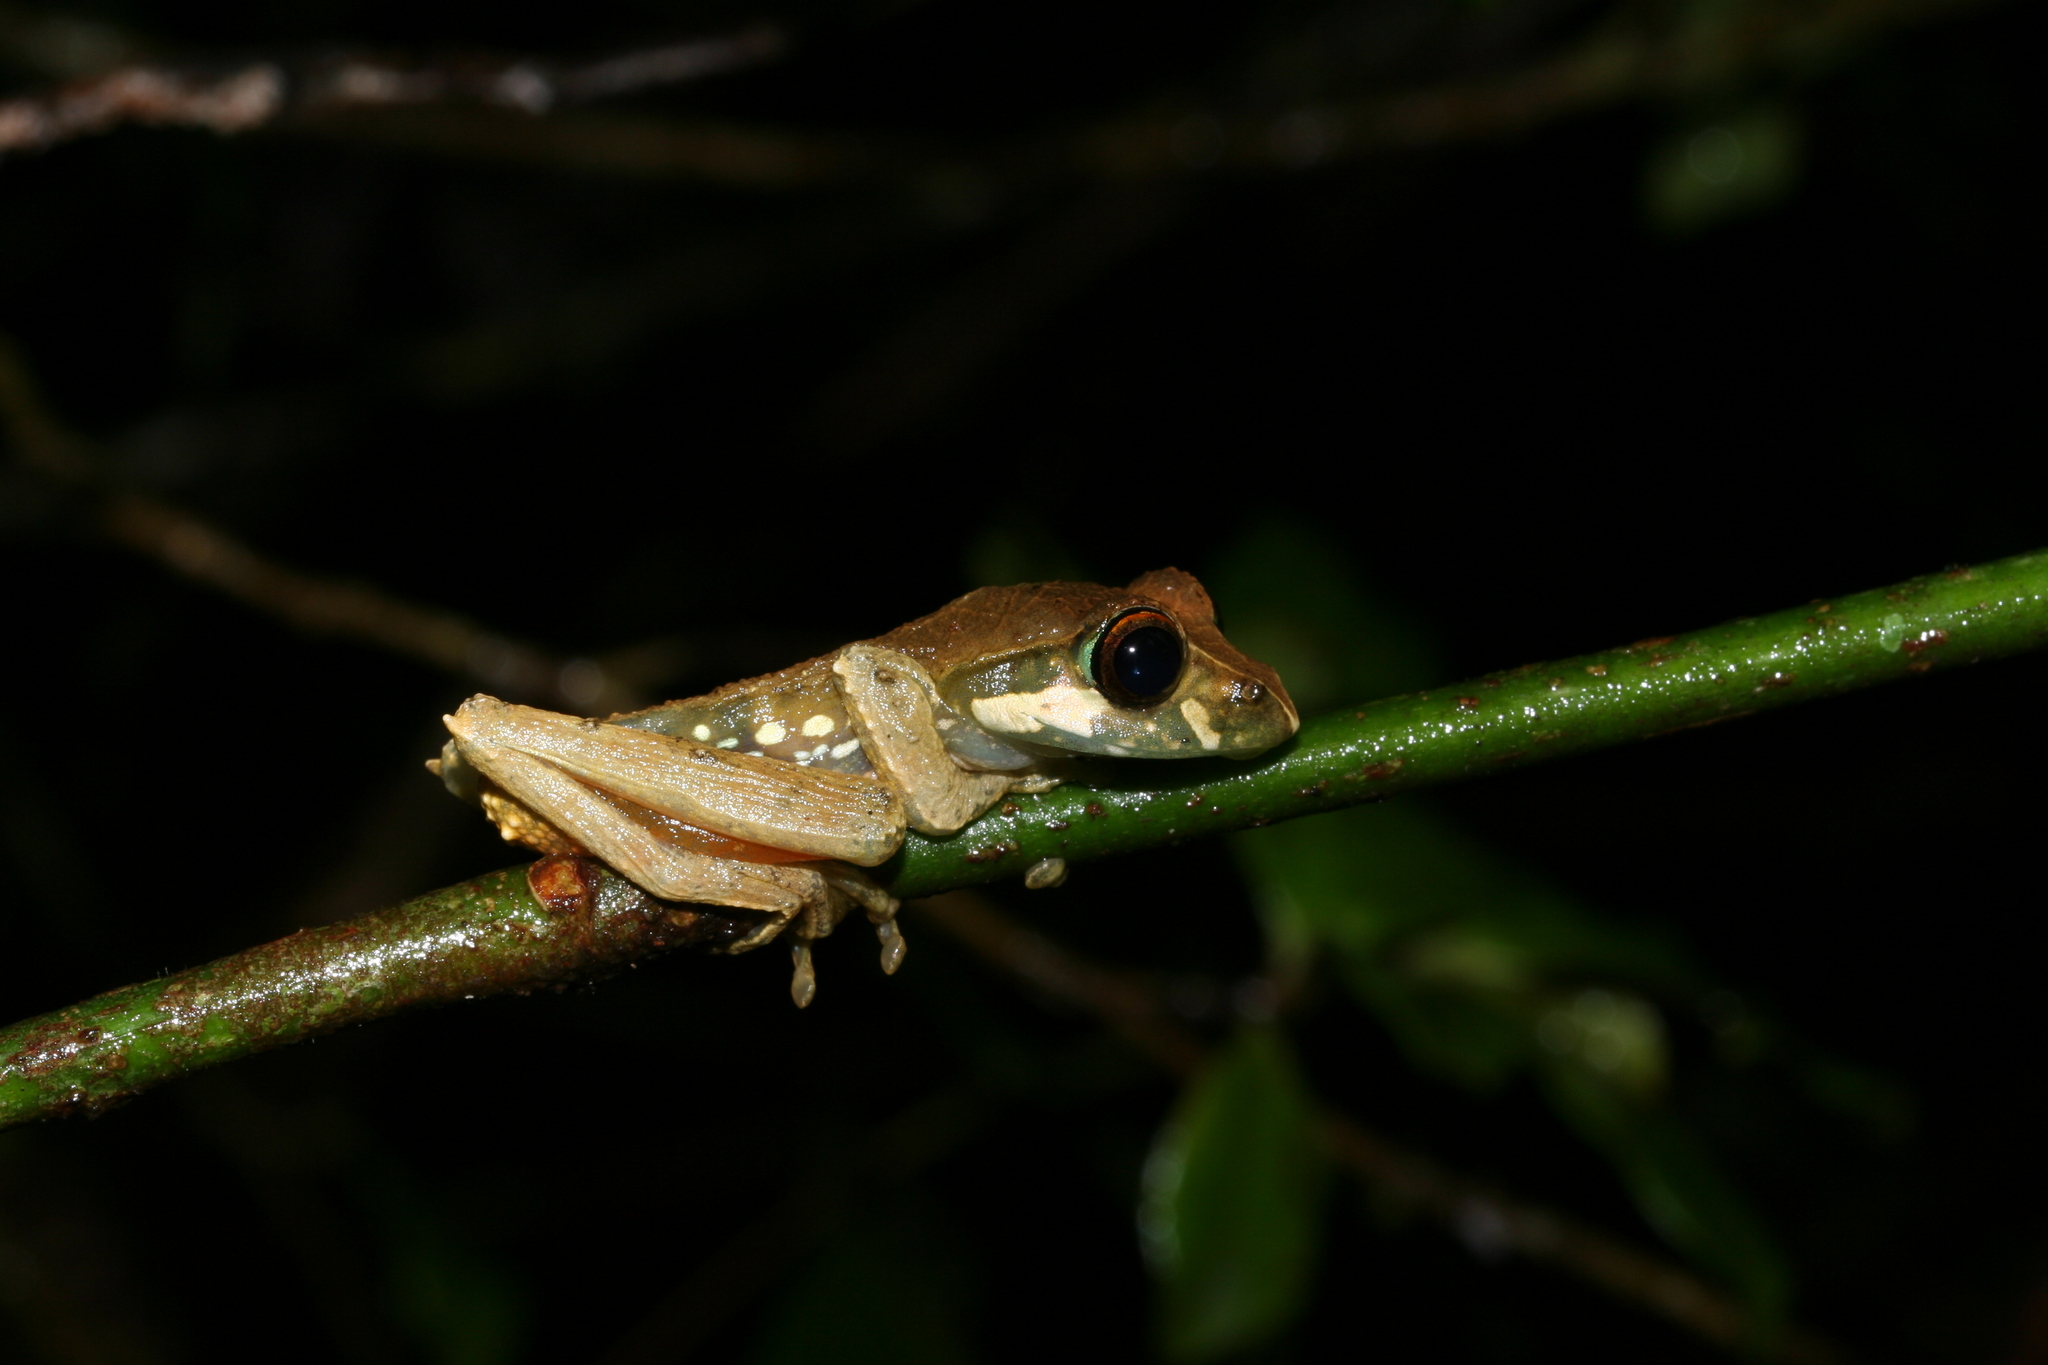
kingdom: Animalia
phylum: Chordata
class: Amphibia
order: Anura
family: Mantellidae
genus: Boophis
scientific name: Boophis reticulatus
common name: Reticulate bright-eyed frog
